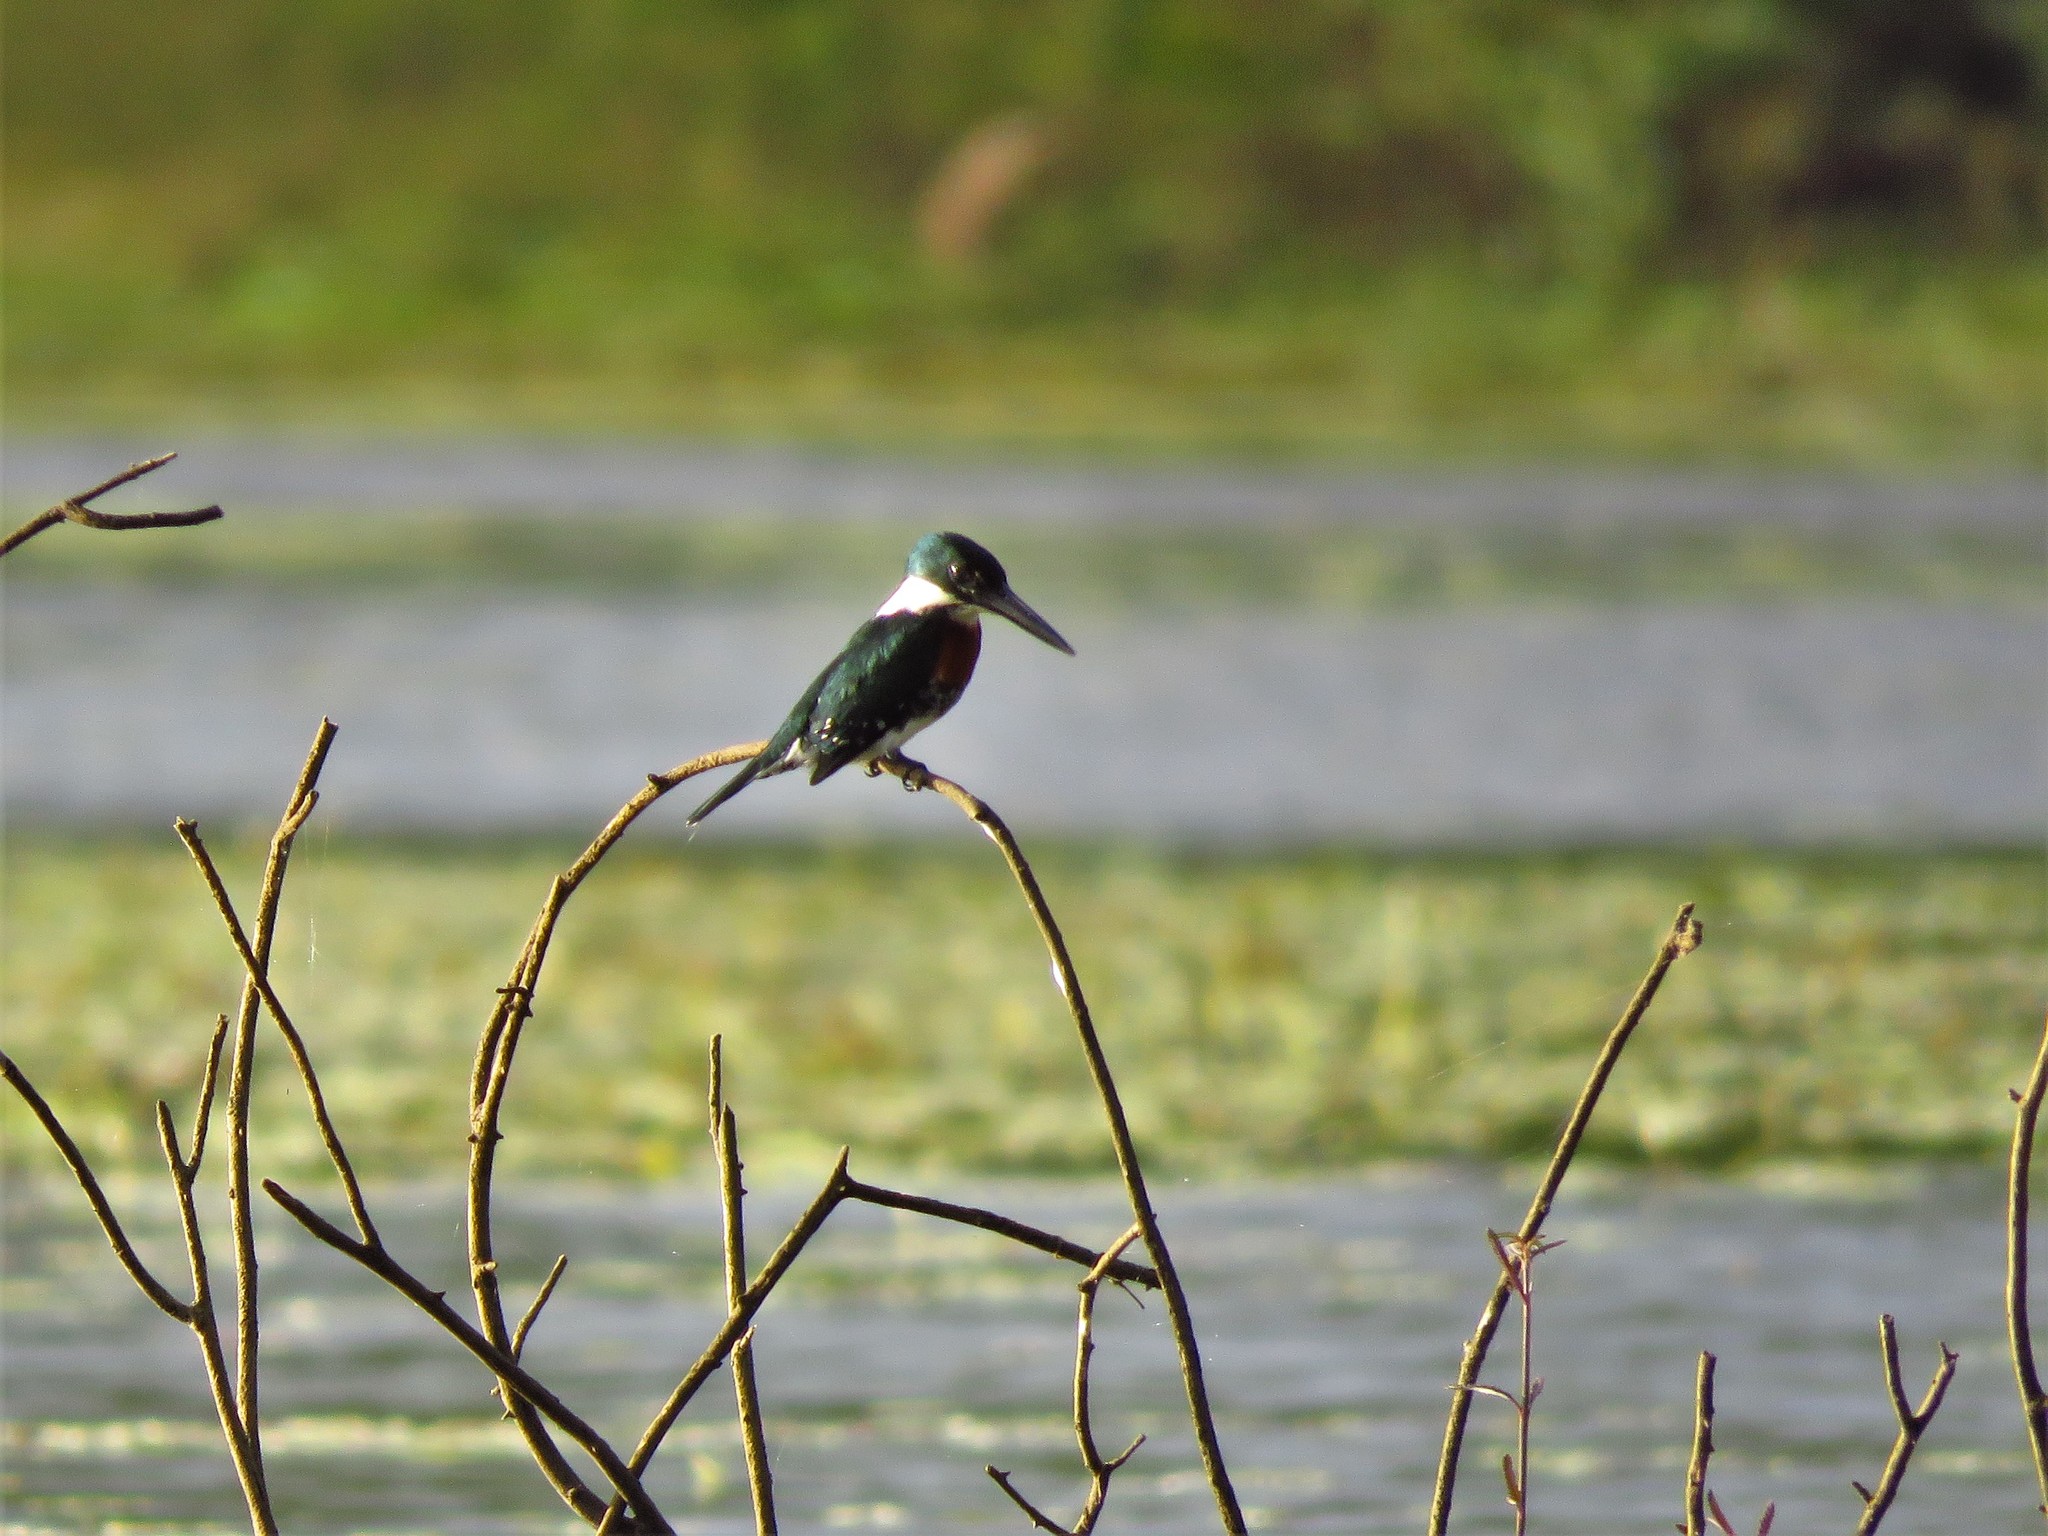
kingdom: Animalia
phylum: Chordata
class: Aves
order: Coraciiformes
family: Alcedinidae
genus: Chloroceryle
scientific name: Chloroceryle americana
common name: Green kingfisher
